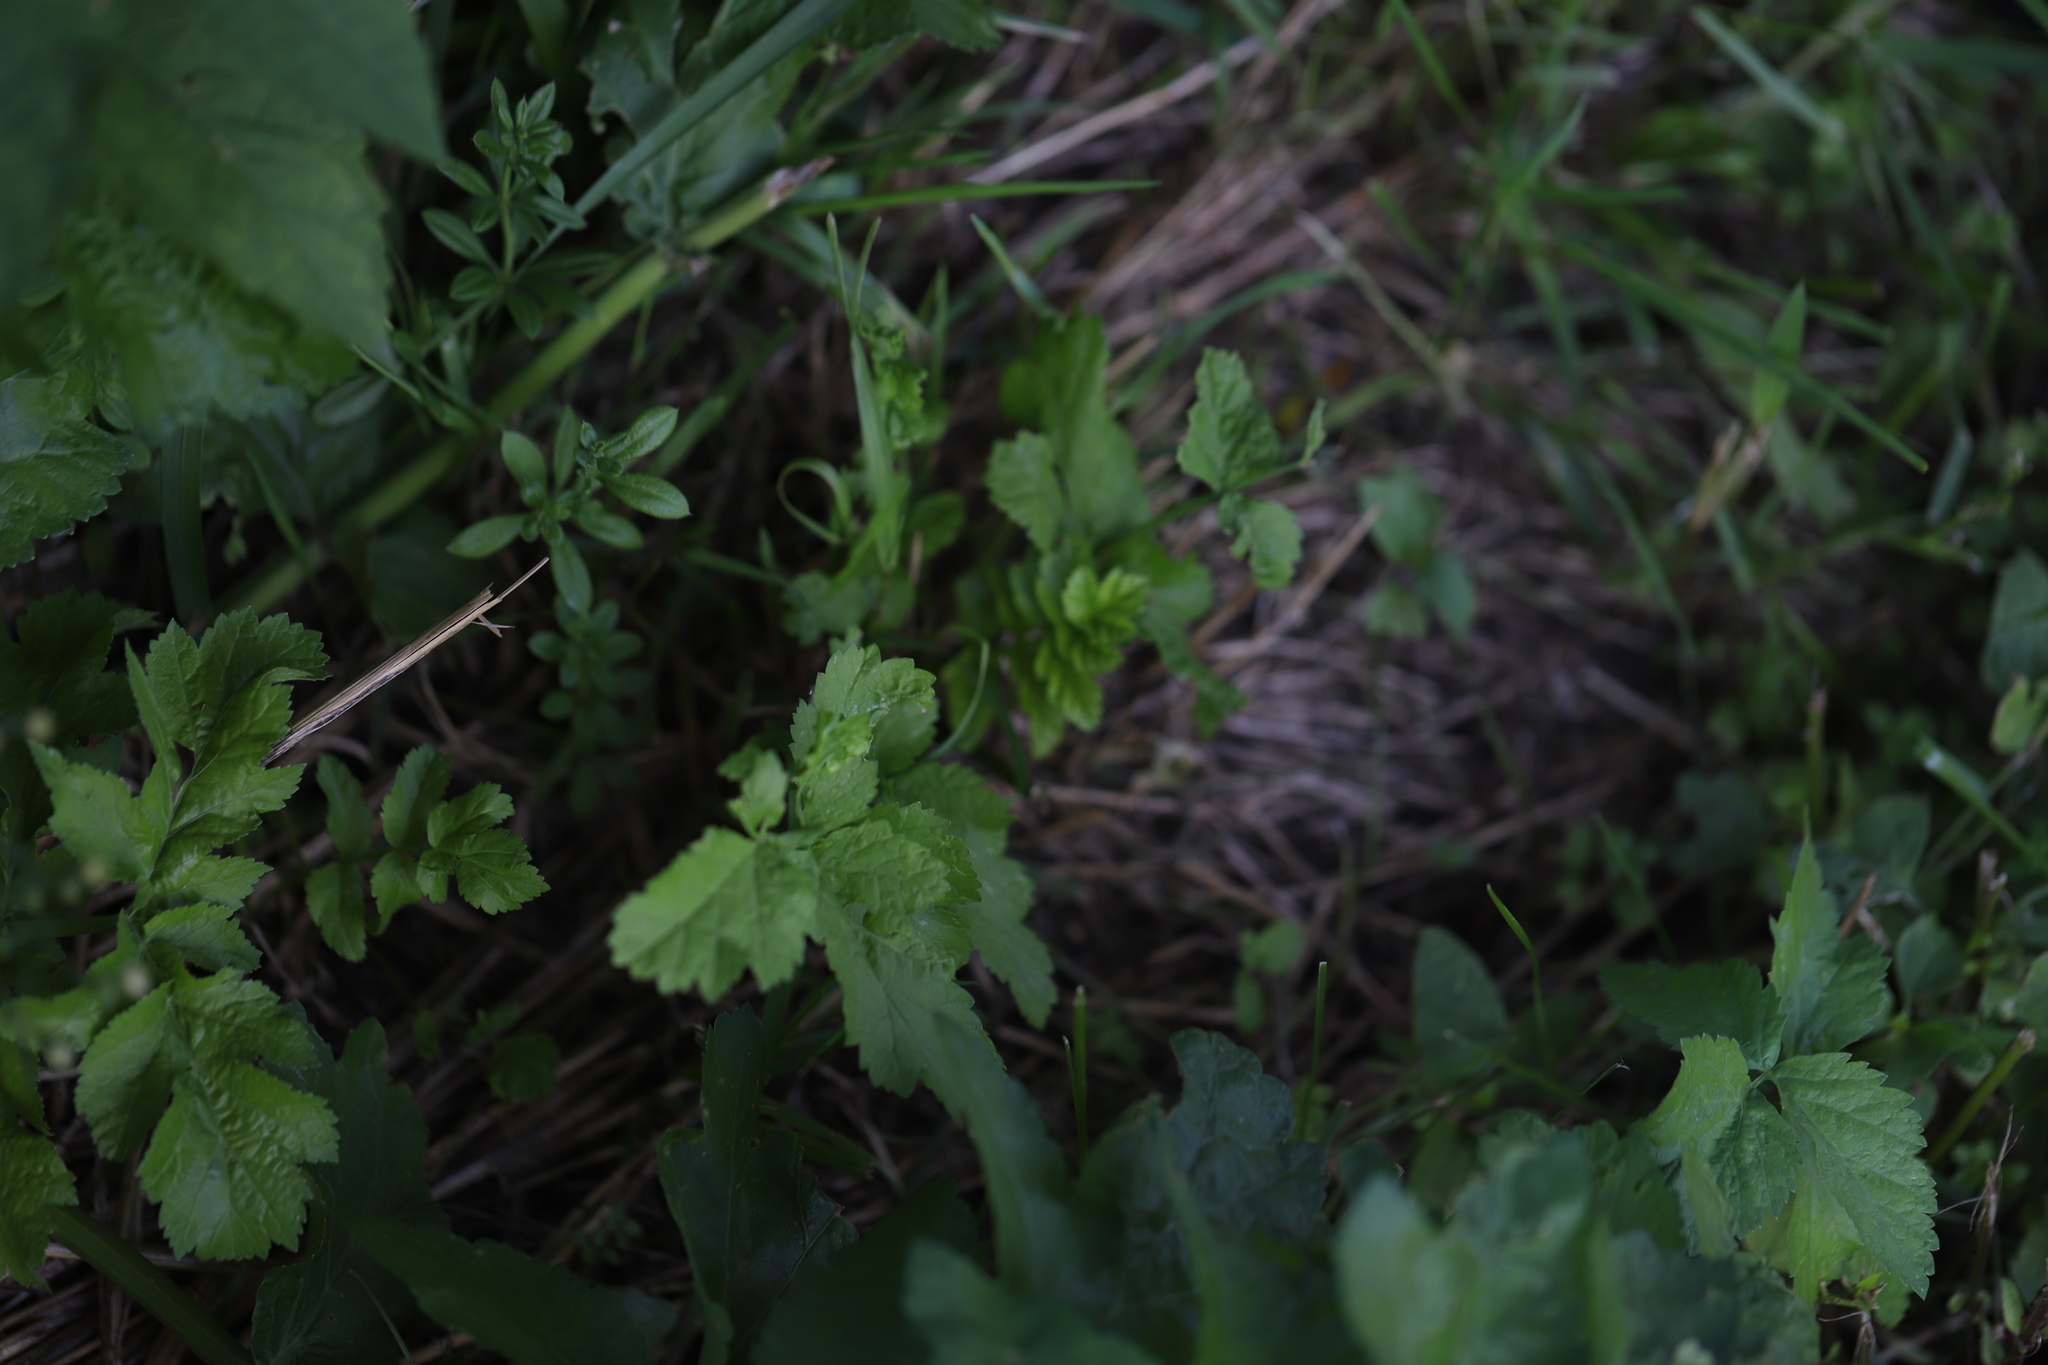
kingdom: Plantae
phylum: Tracheophyta
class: Magnoliopsida
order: Apiales
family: Apiaceae
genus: Pastinaca
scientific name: Pastinaca sativa
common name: Wild parsnip
